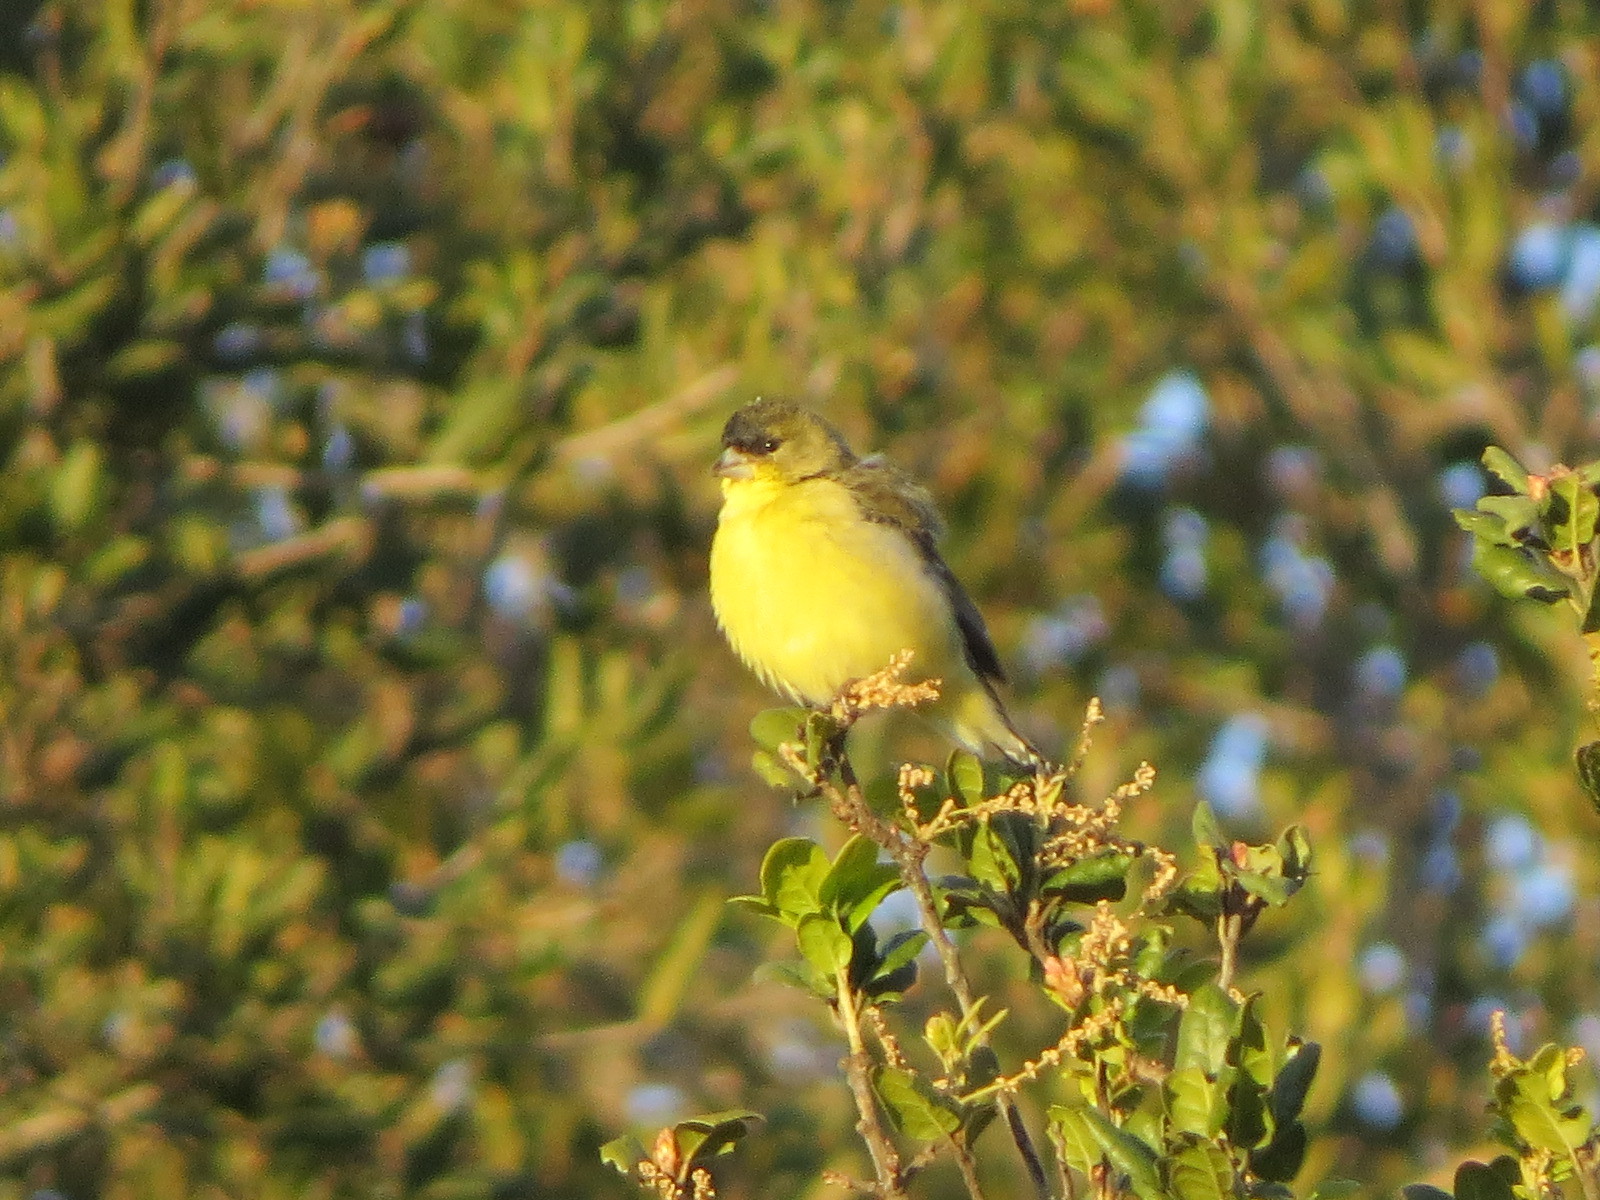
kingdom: Animalia
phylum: Chordata
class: Aves
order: Passeriformes
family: Fringillidae
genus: Spinus
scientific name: Spinus psaltria
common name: Lesser goldfinch
